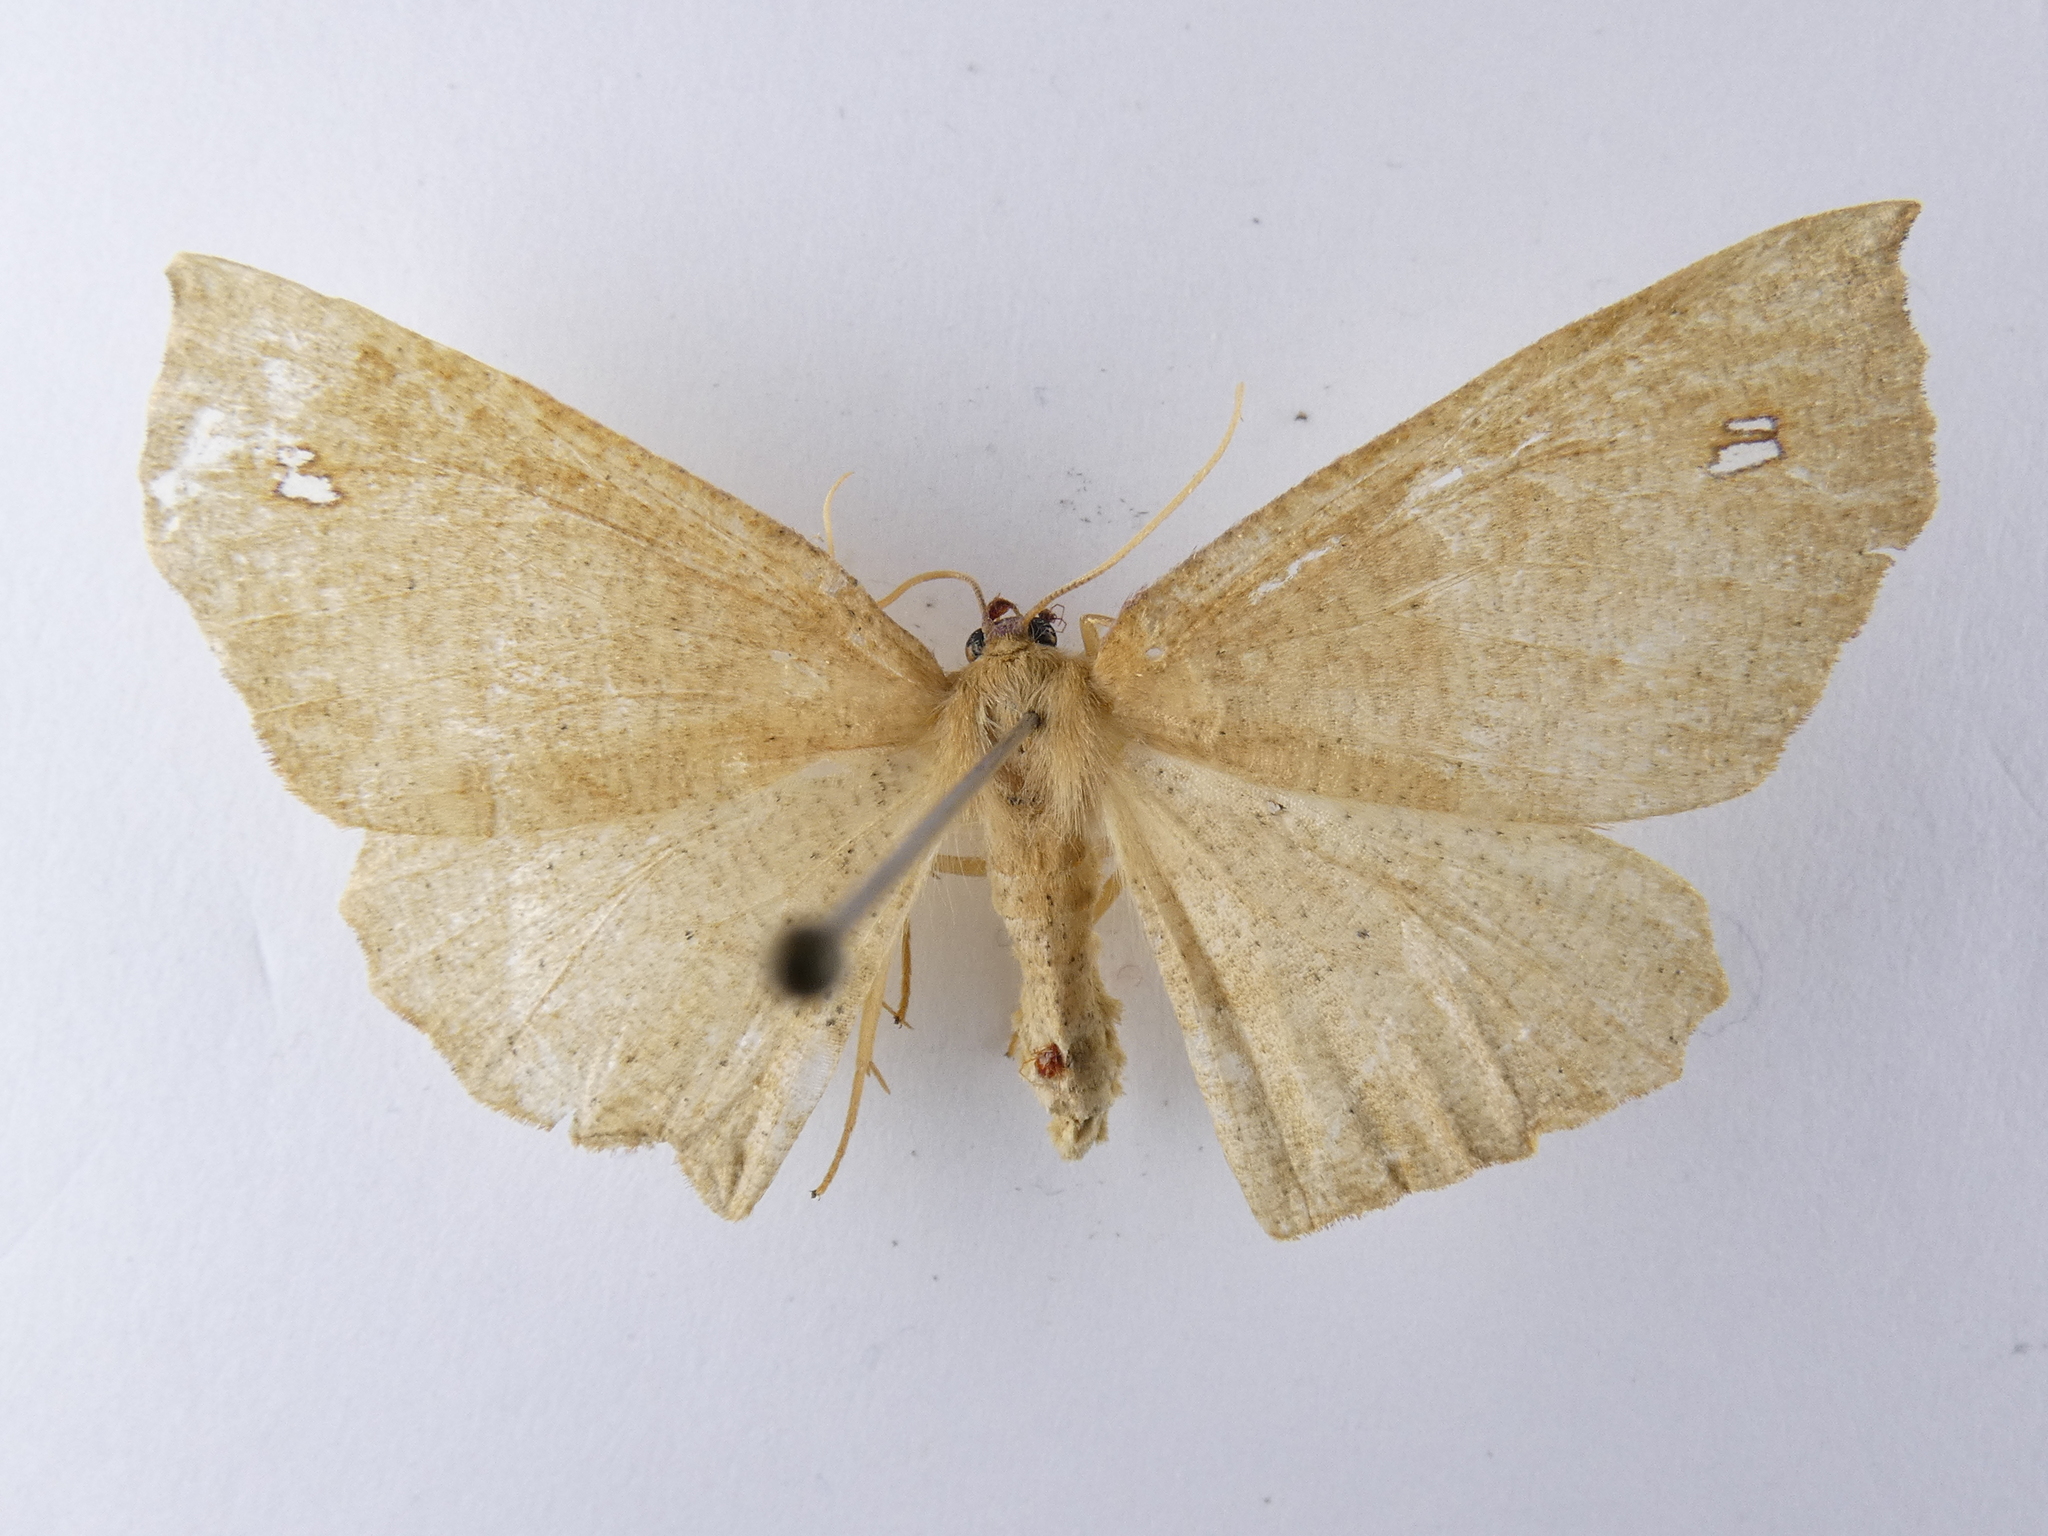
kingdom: Animalia
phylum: Arthropoda
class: Insecta
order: Lepidoptera
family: Geometridae
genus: Xyridacma
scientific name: Xyridacma alectoraria
